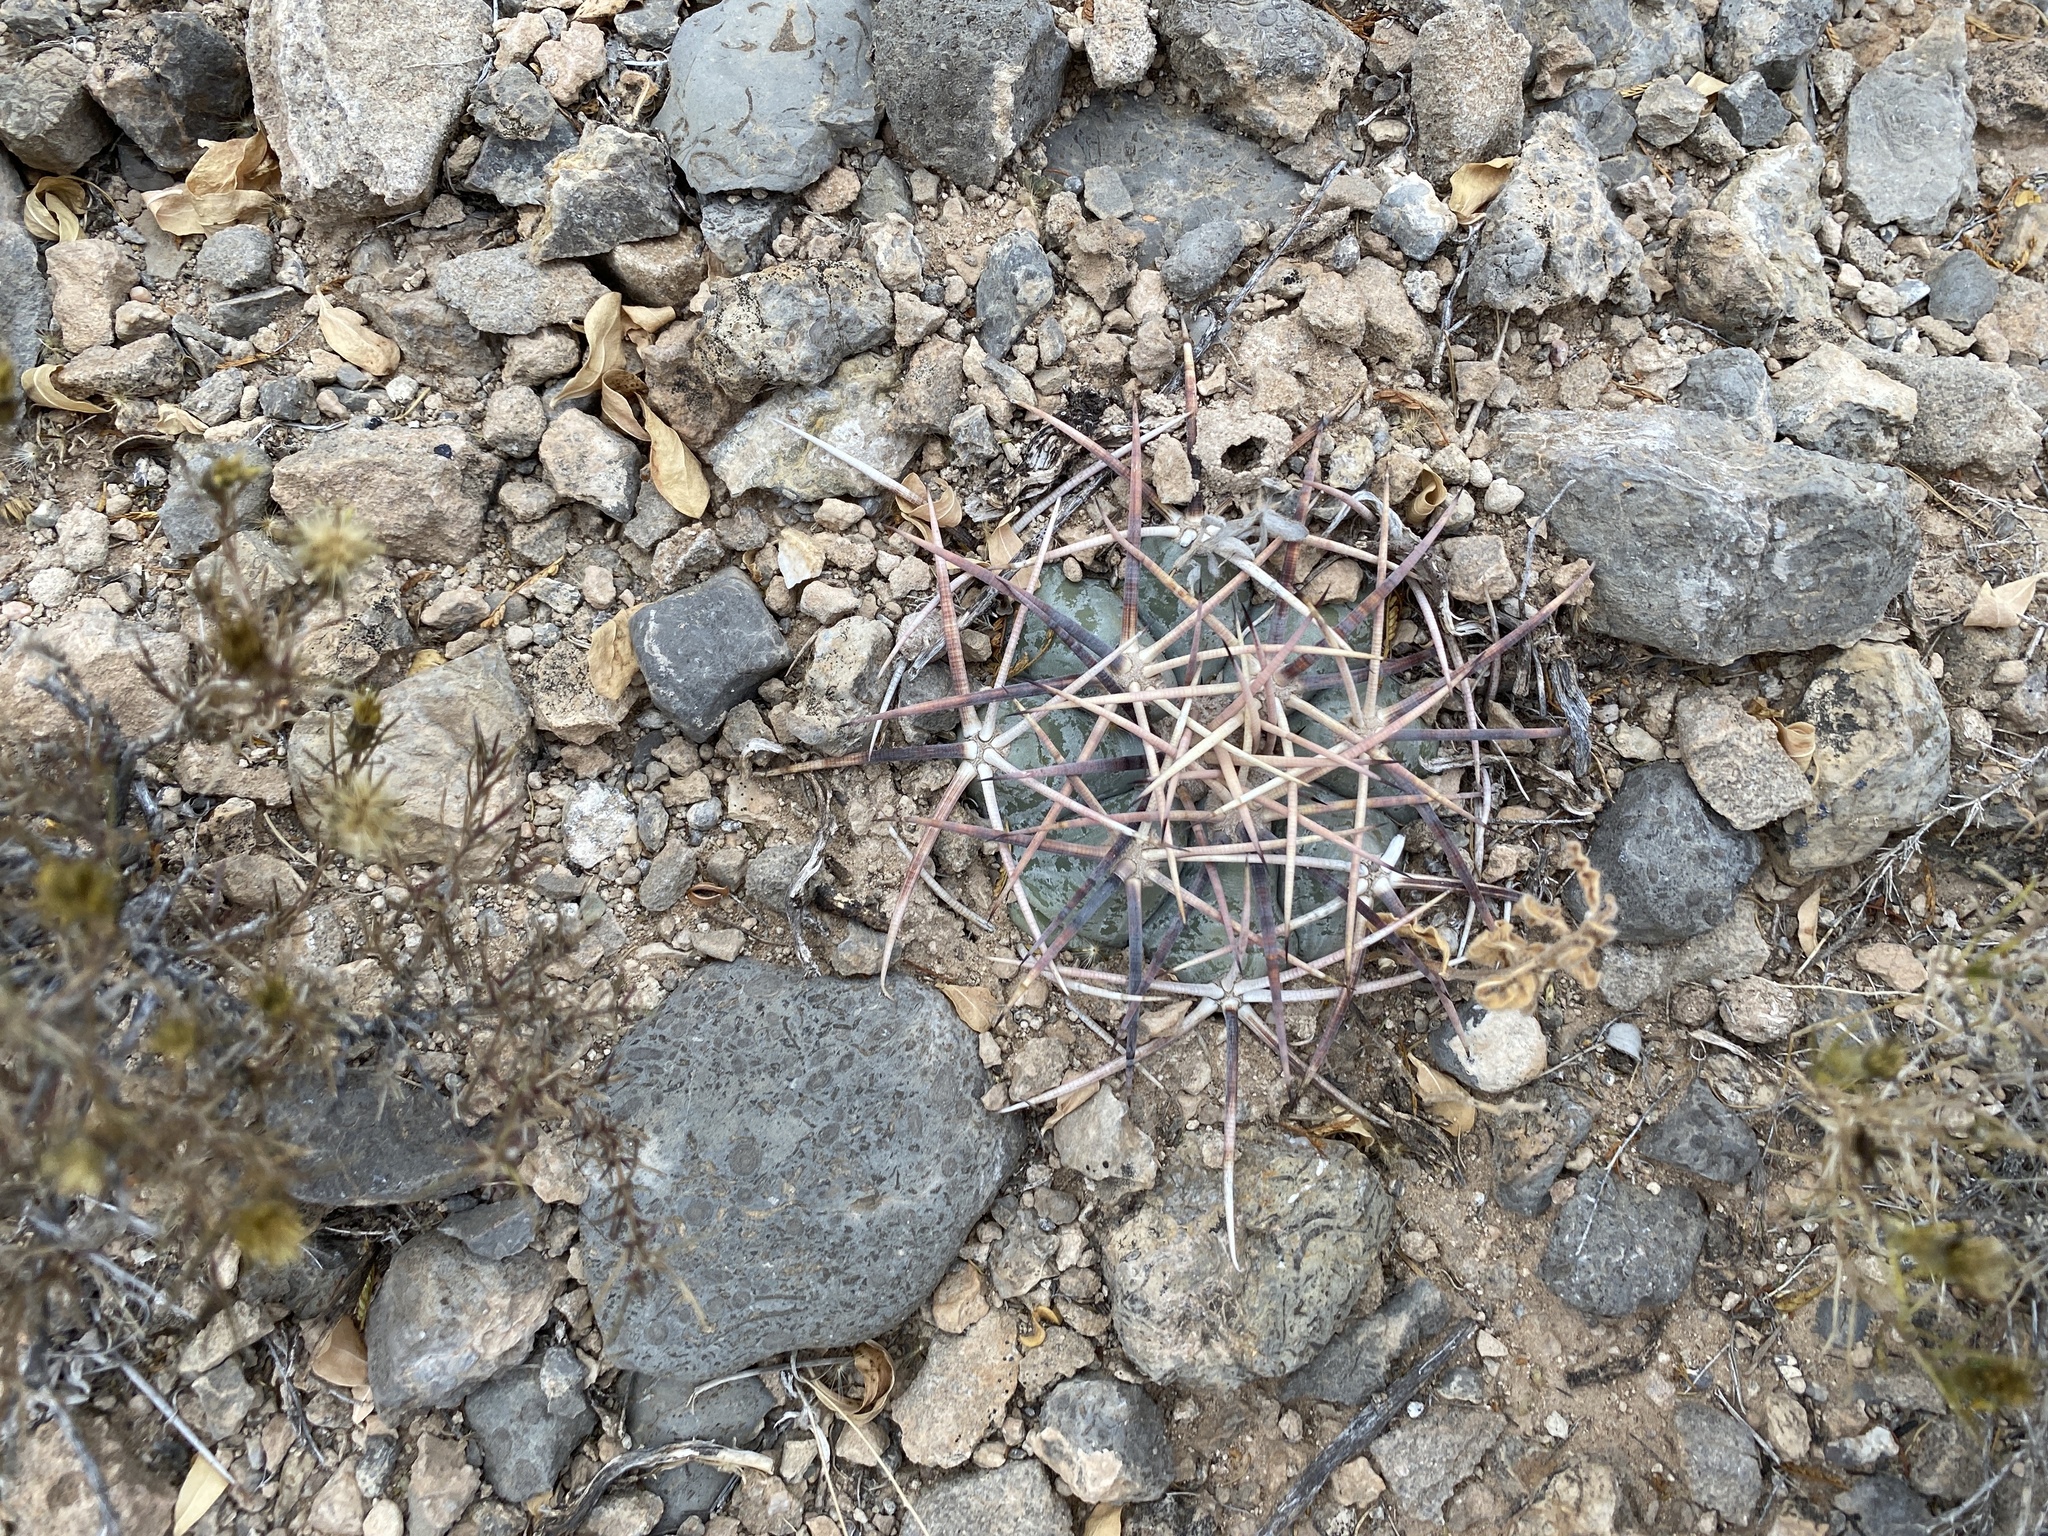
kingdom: Plantae
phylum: Tracheophyta
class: Magnoliopsida
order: Caryophyllales
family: Cactaceae
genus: Echinocactus
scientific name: Echinocactus horizonthalonius
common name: Devilshead
